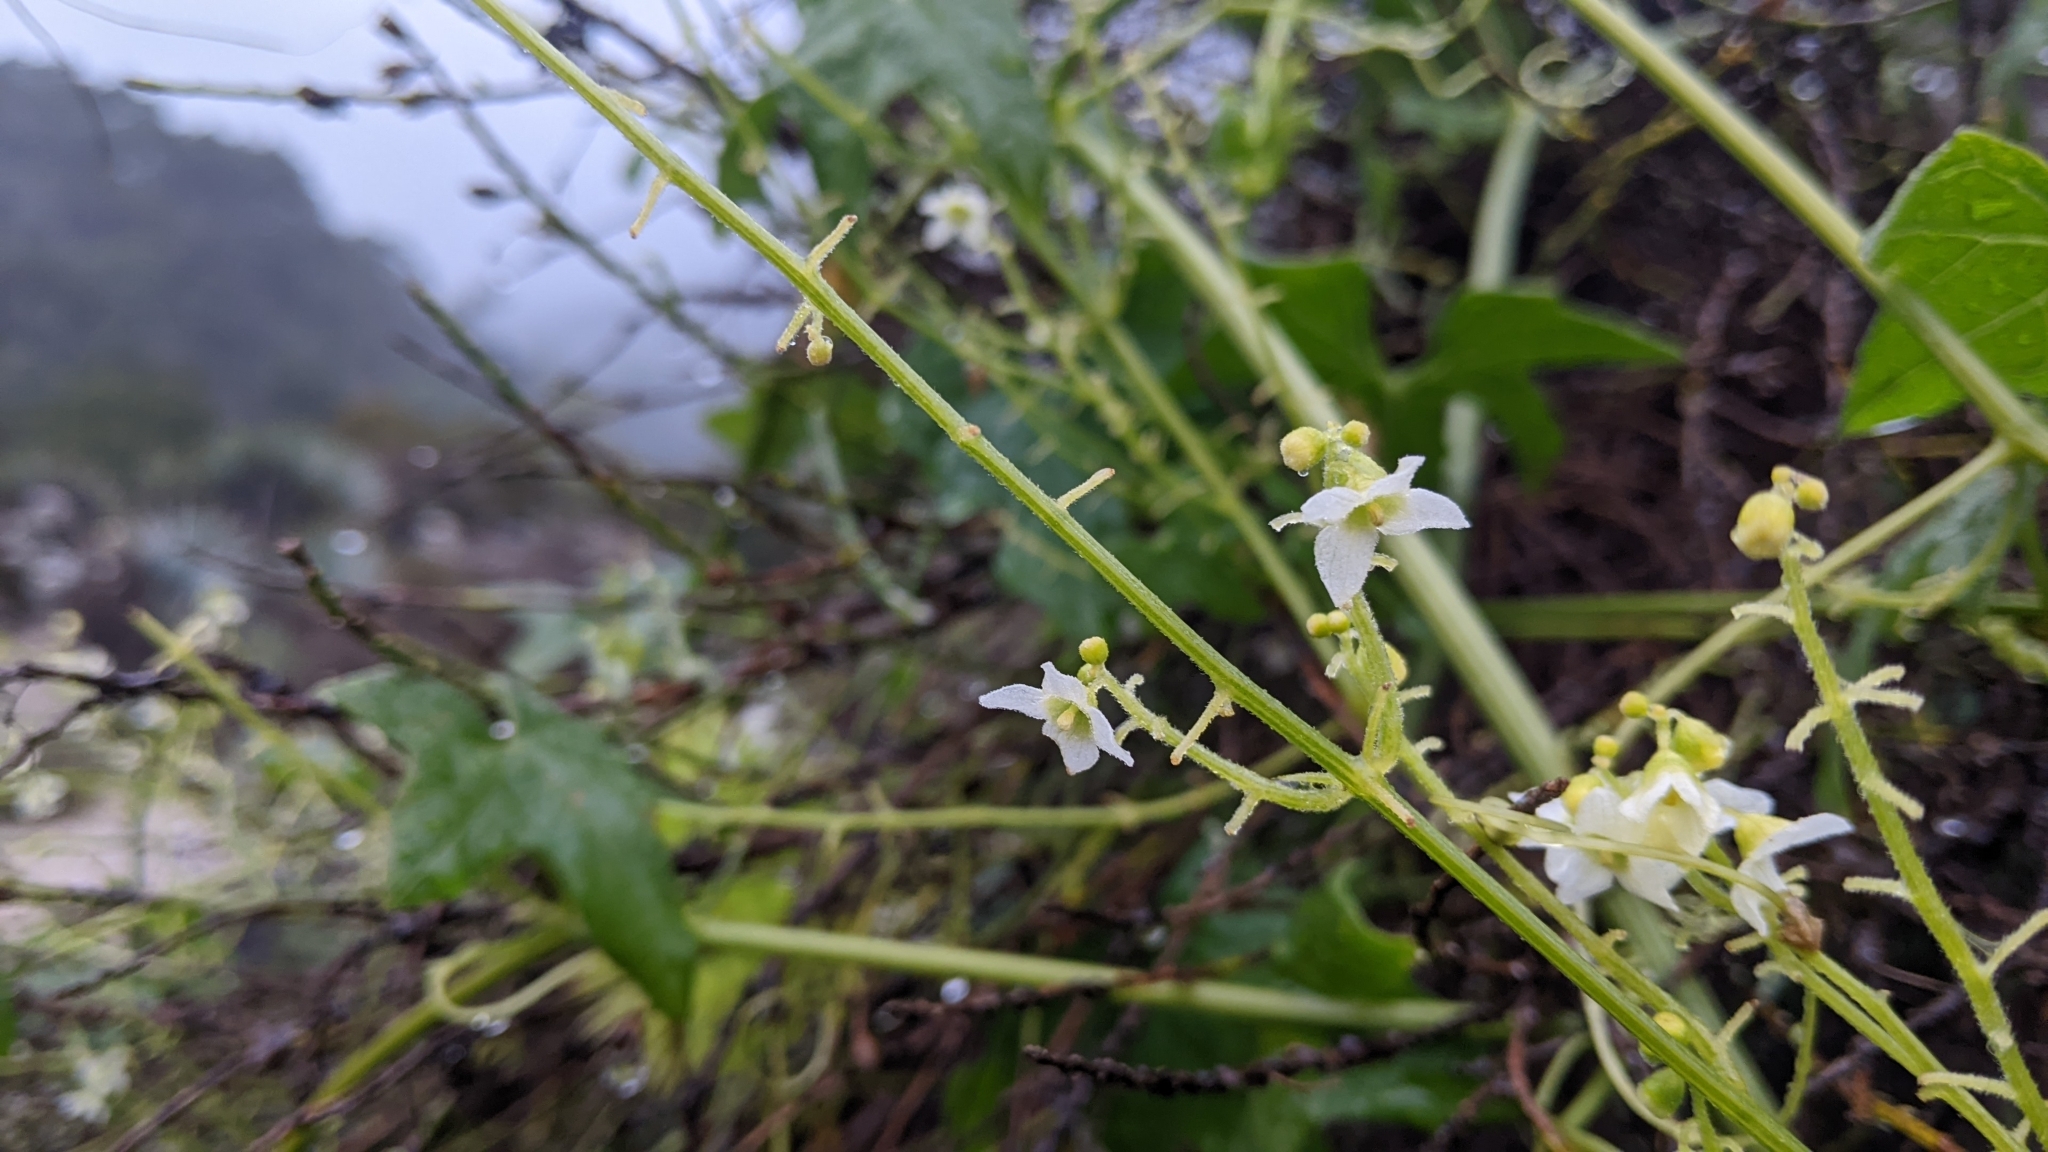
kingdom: Plantae
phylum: Tracheophyta
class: Magnoliopsida
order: Cucurbitales
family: Cucurbitaceae
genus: Marah
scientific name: Marah macrocarpa
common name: Cucamonga manroot
